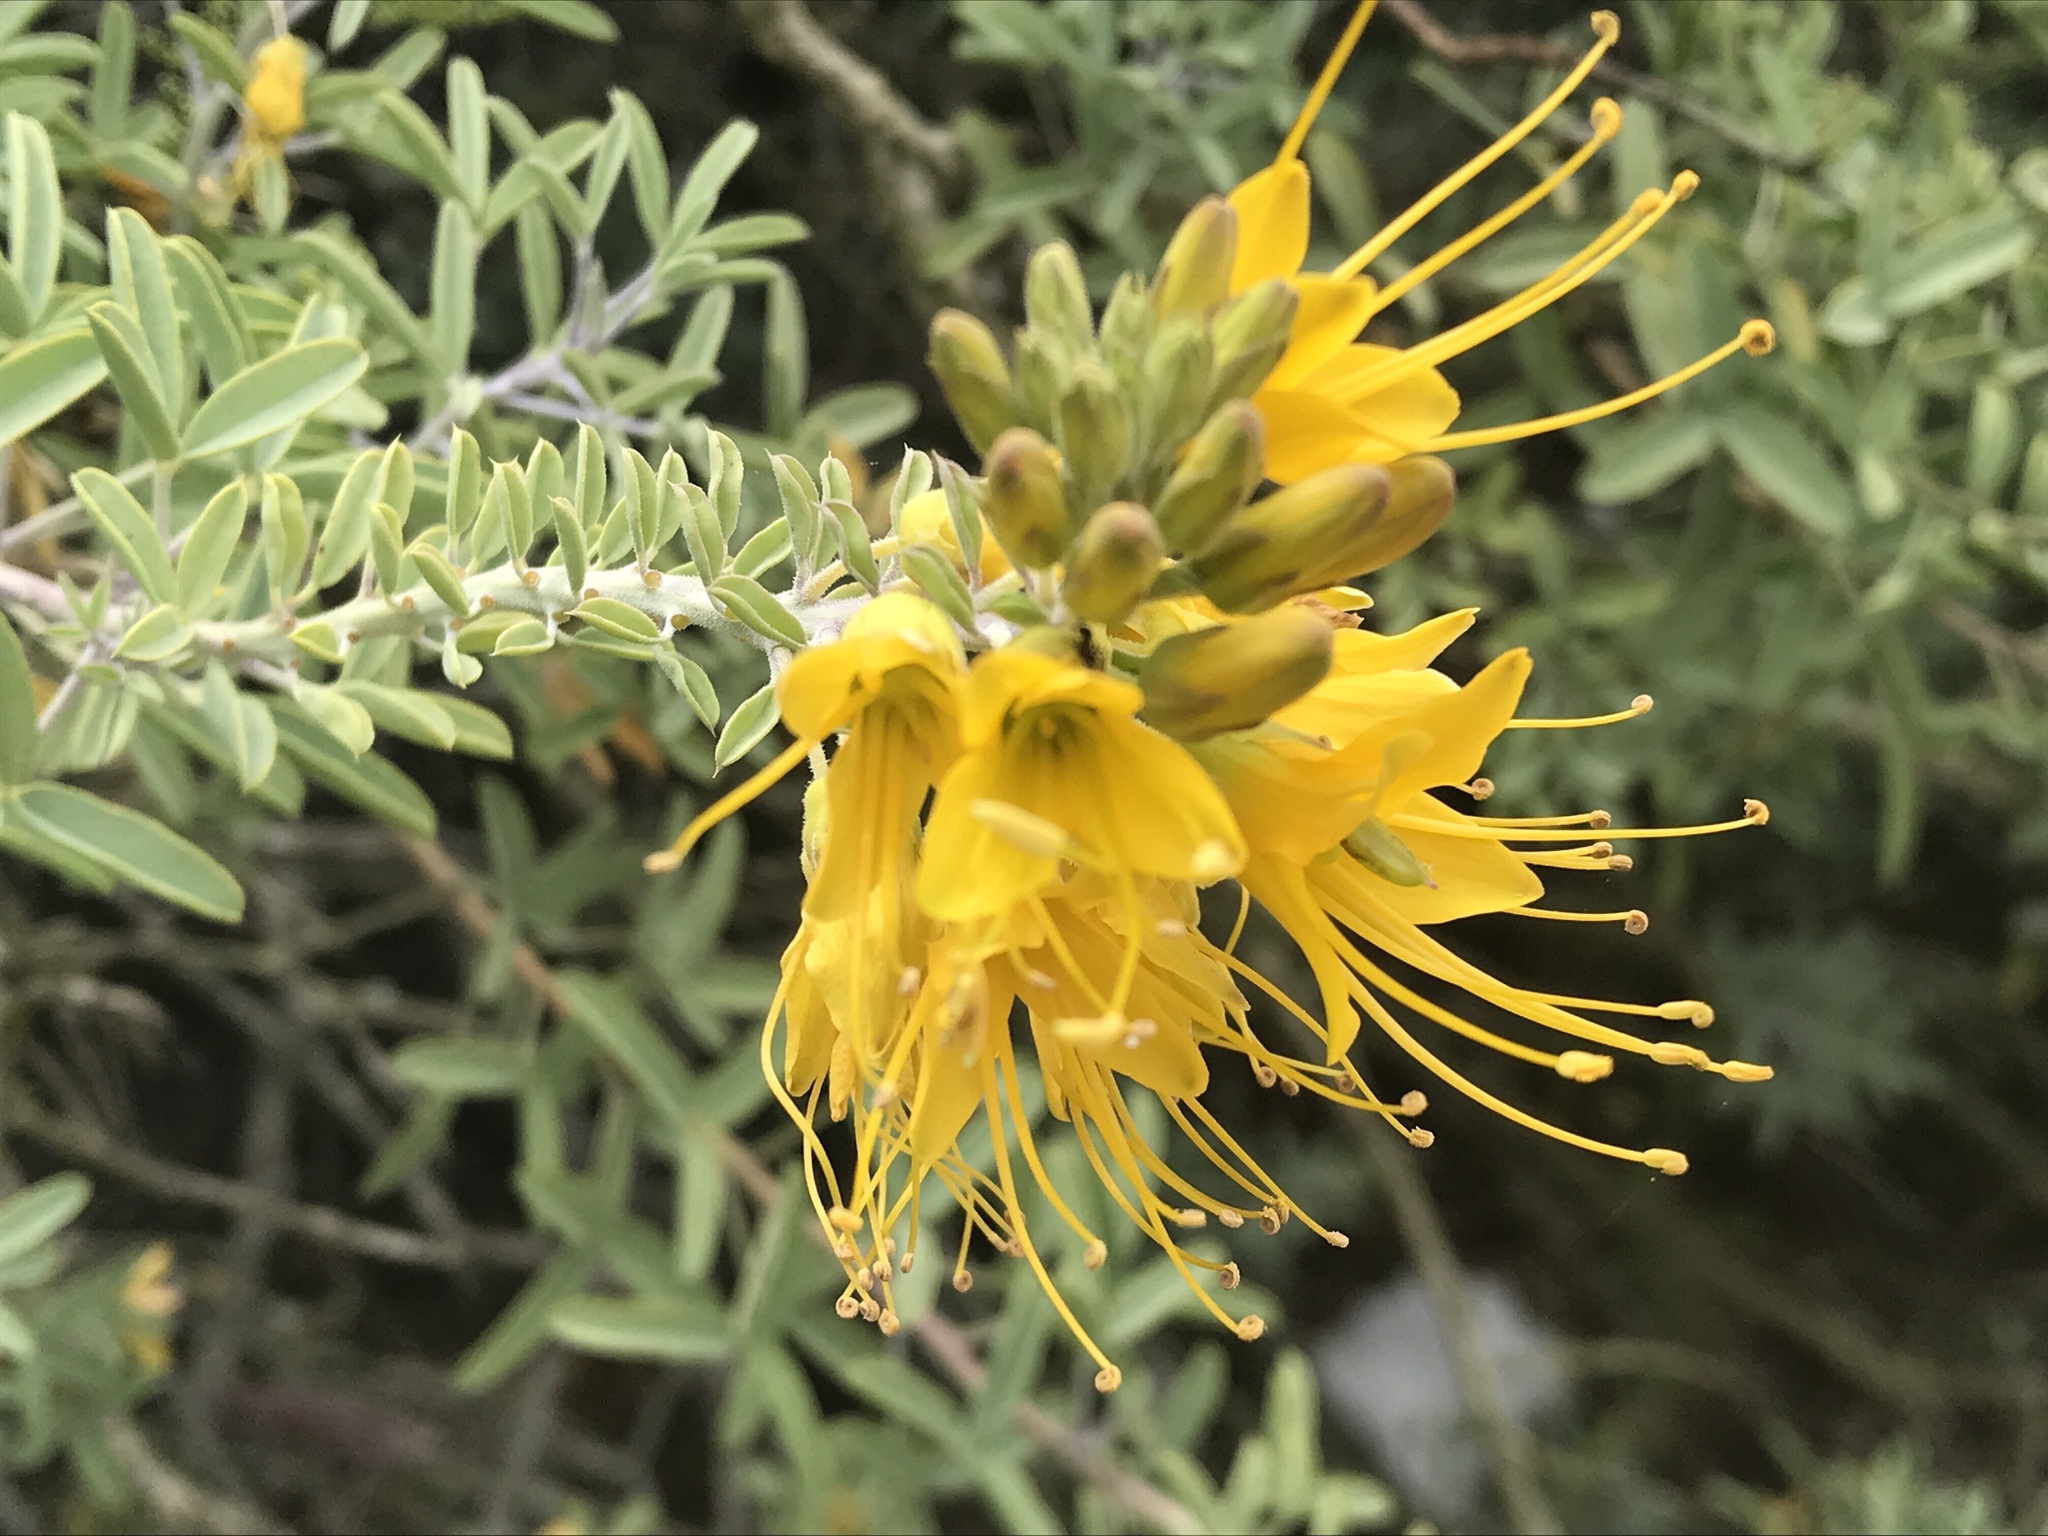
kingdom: Plantae
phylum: Tracheophyta
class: Magnoliopsida
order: Brassicales
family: Cleomaceae
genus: Cleomella
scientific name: Cleomella arborea
